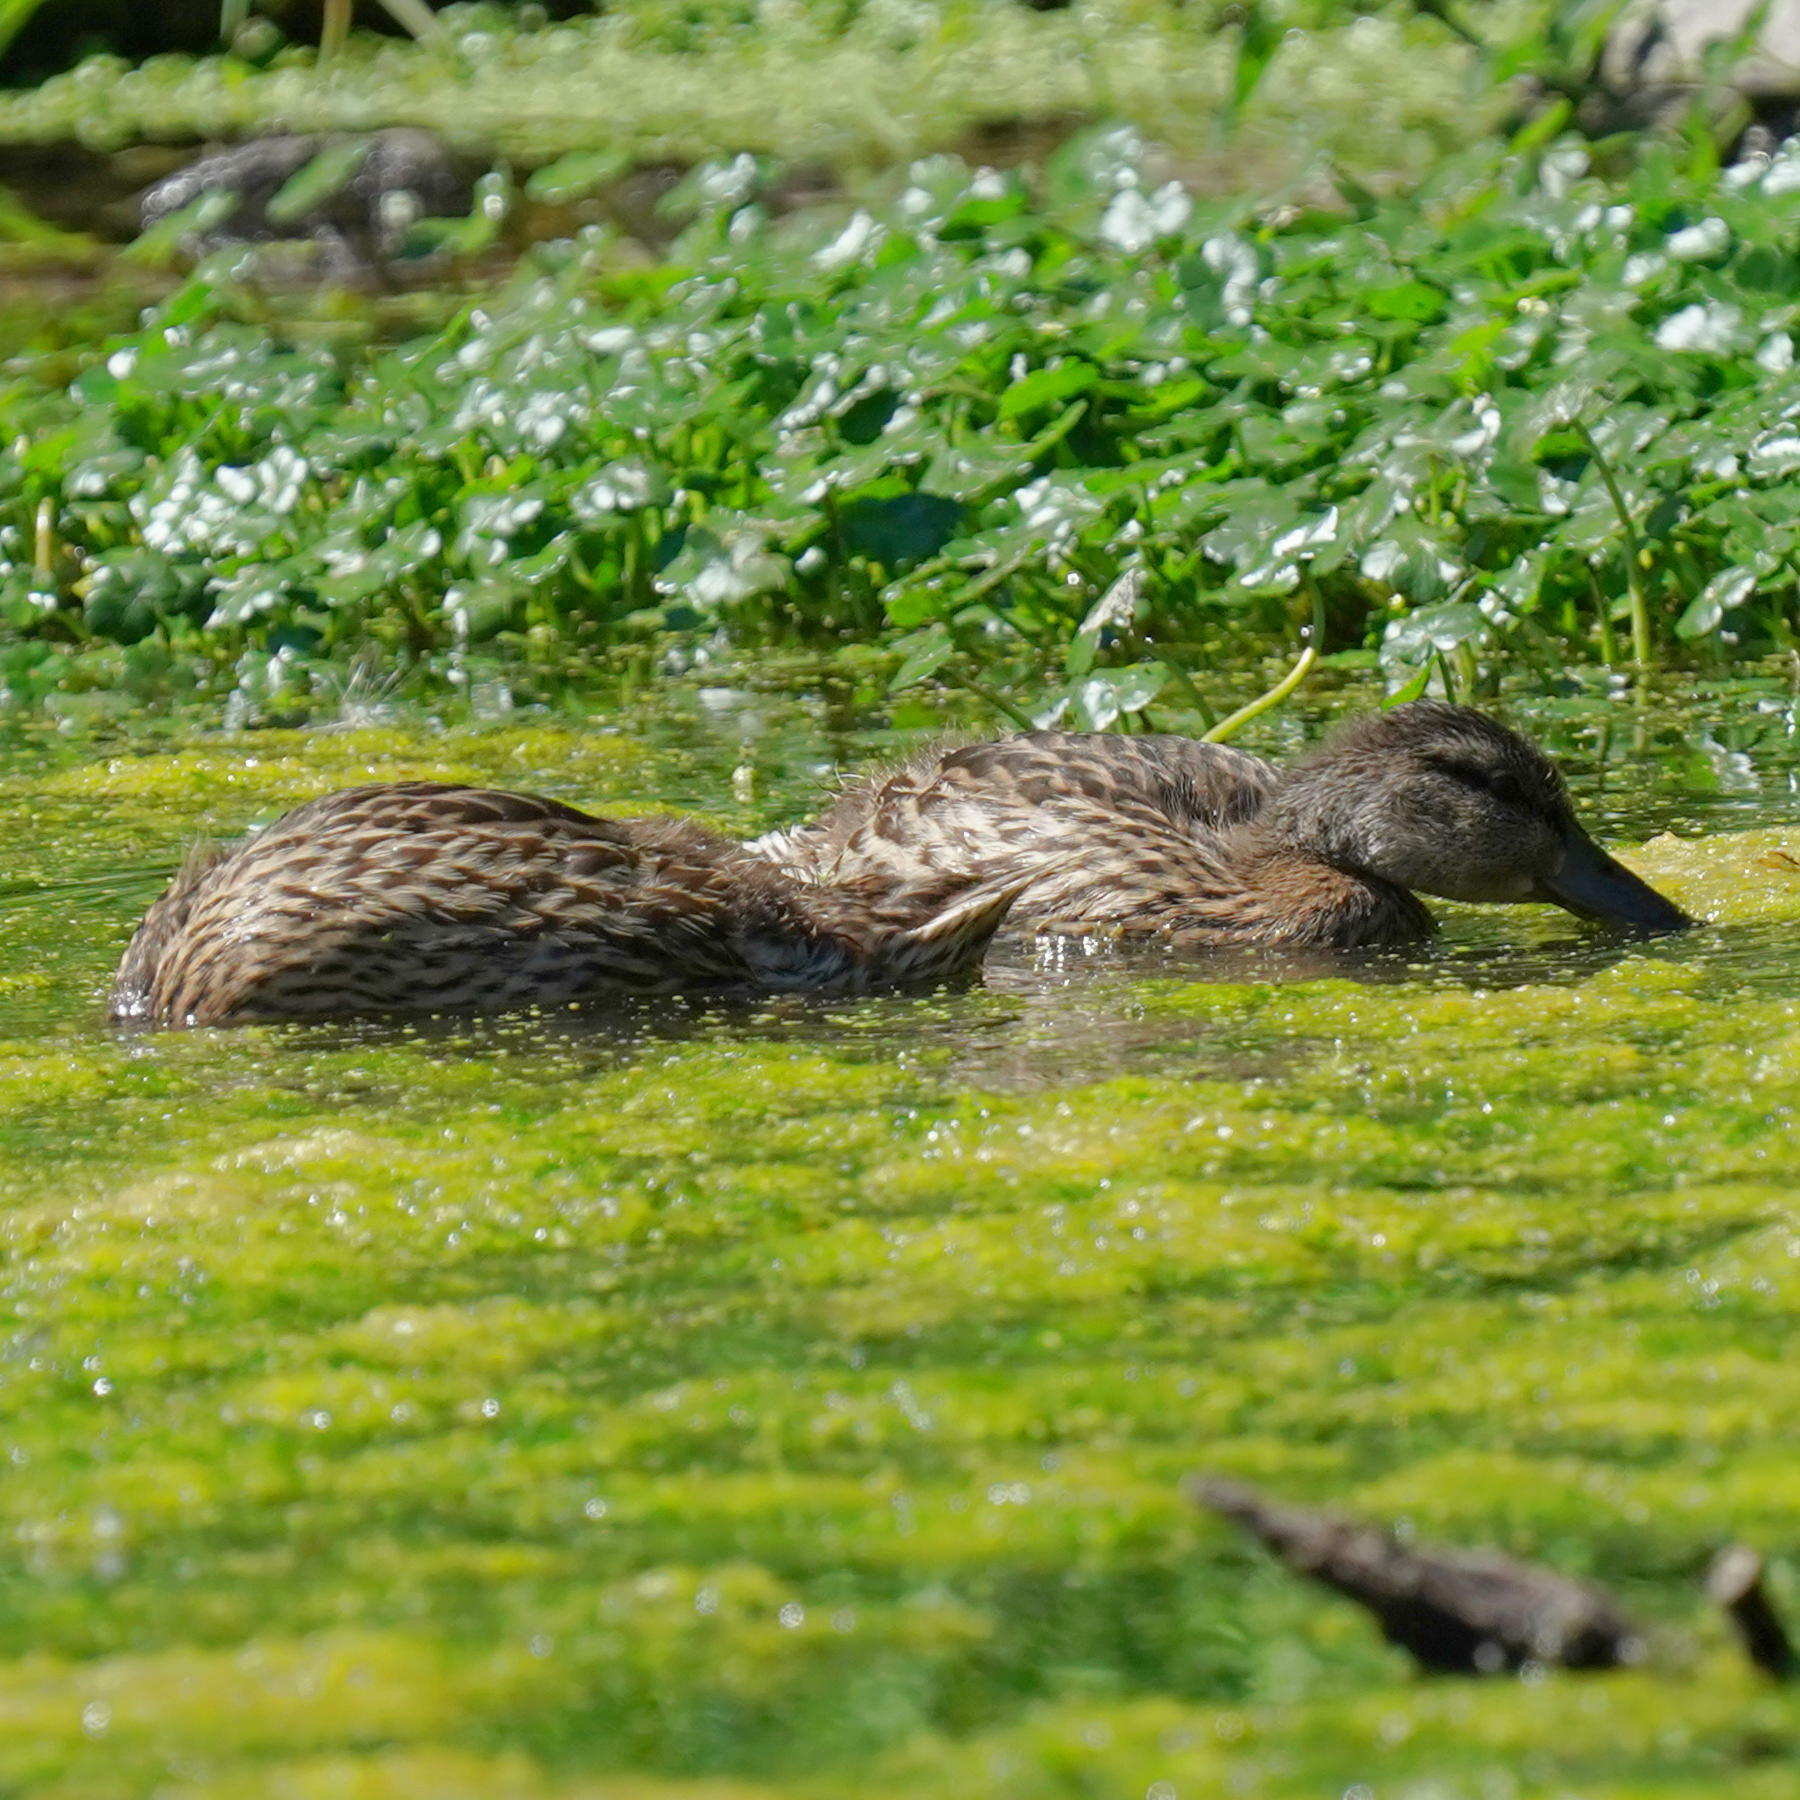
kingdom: Animalia
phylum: Chordata
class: Aves
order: Anseriformes
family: Anatidae
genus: Anas
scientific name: Anas platyrhynchos
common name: Mallard
